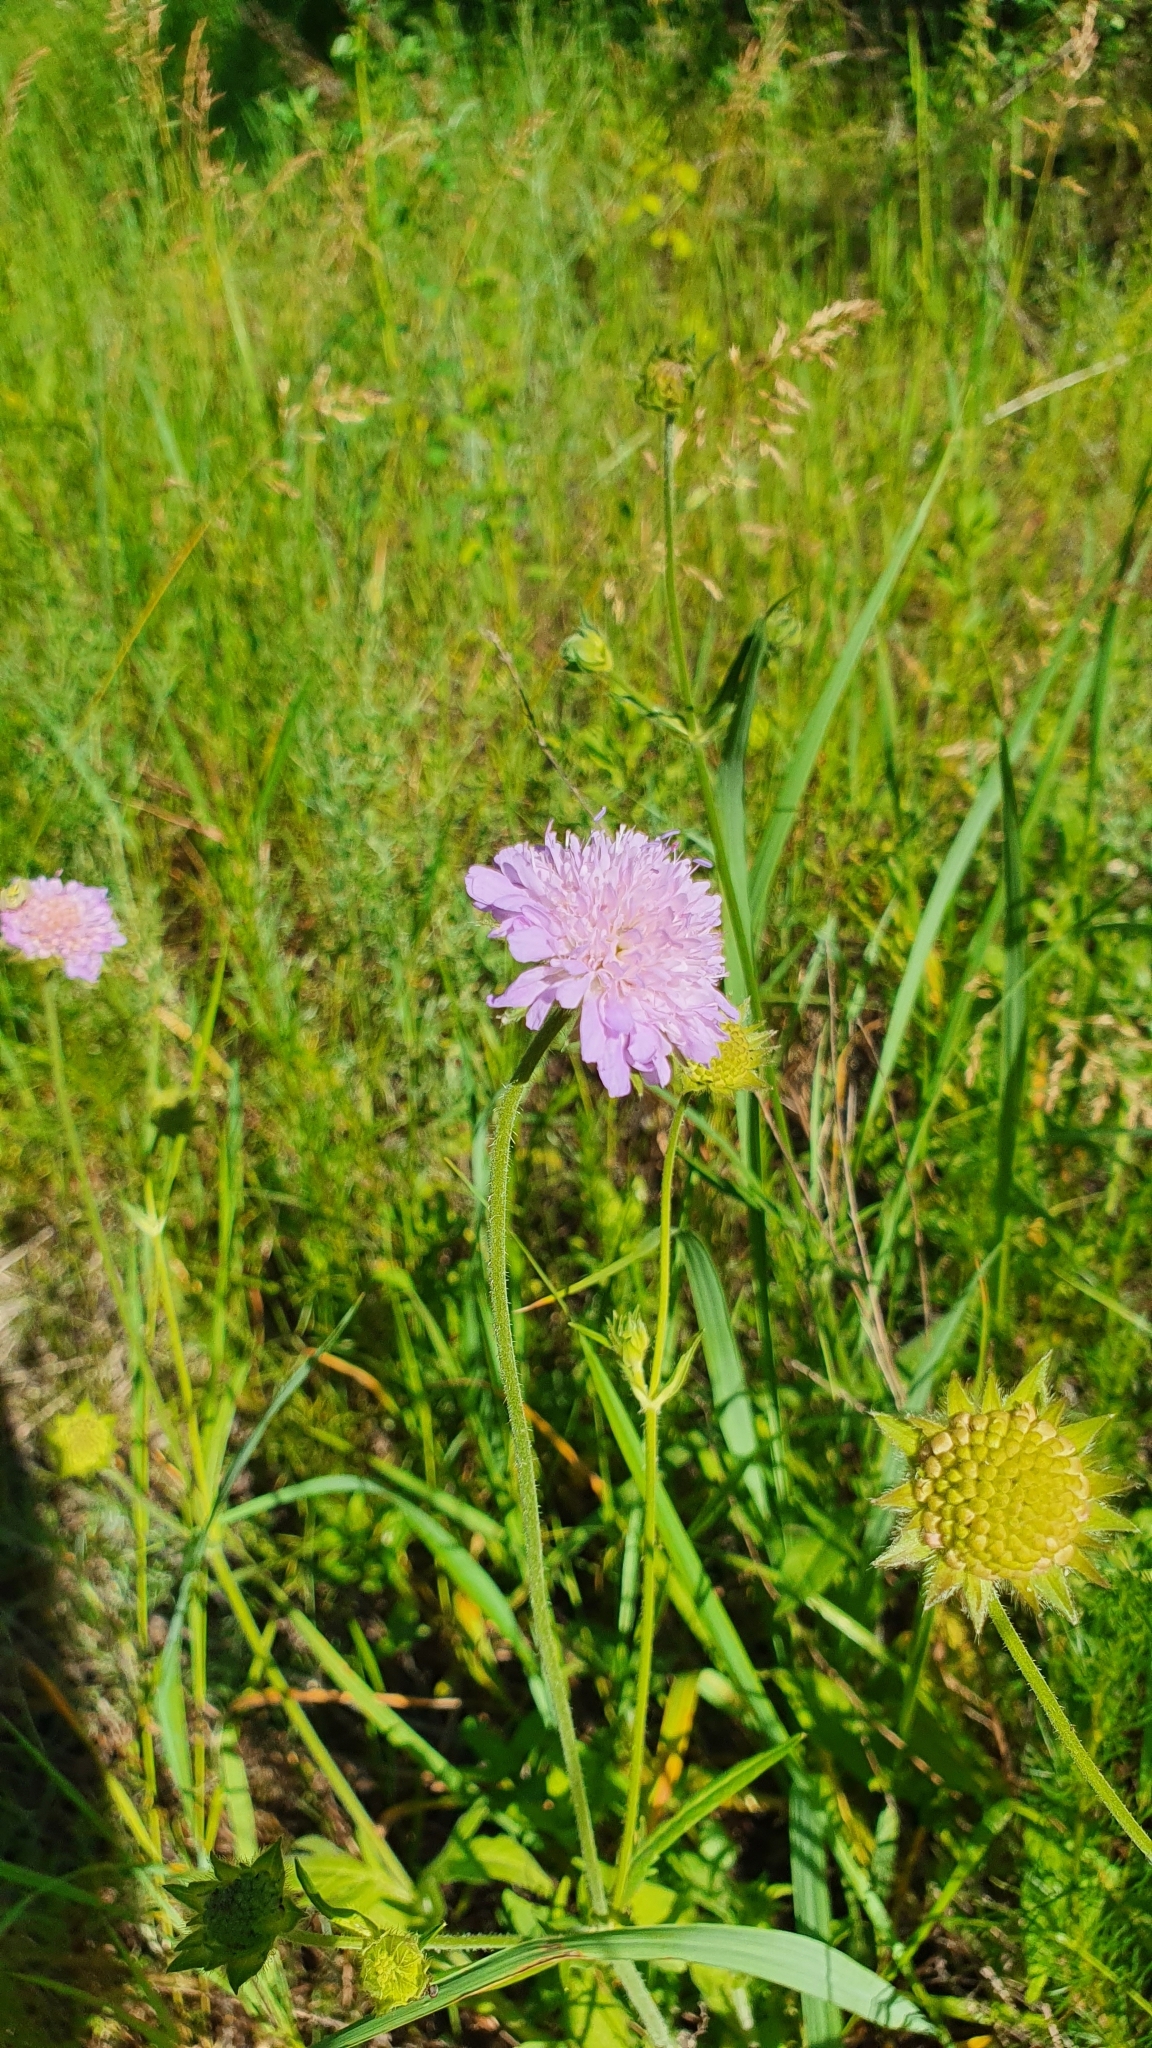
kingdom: Plantae
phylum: Tracheophyta
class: Magnoliopsida
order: Dipsacales
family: Caprifoliaceae
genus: Knautia
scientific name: Knautia arvensis
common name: Field scabiosa
